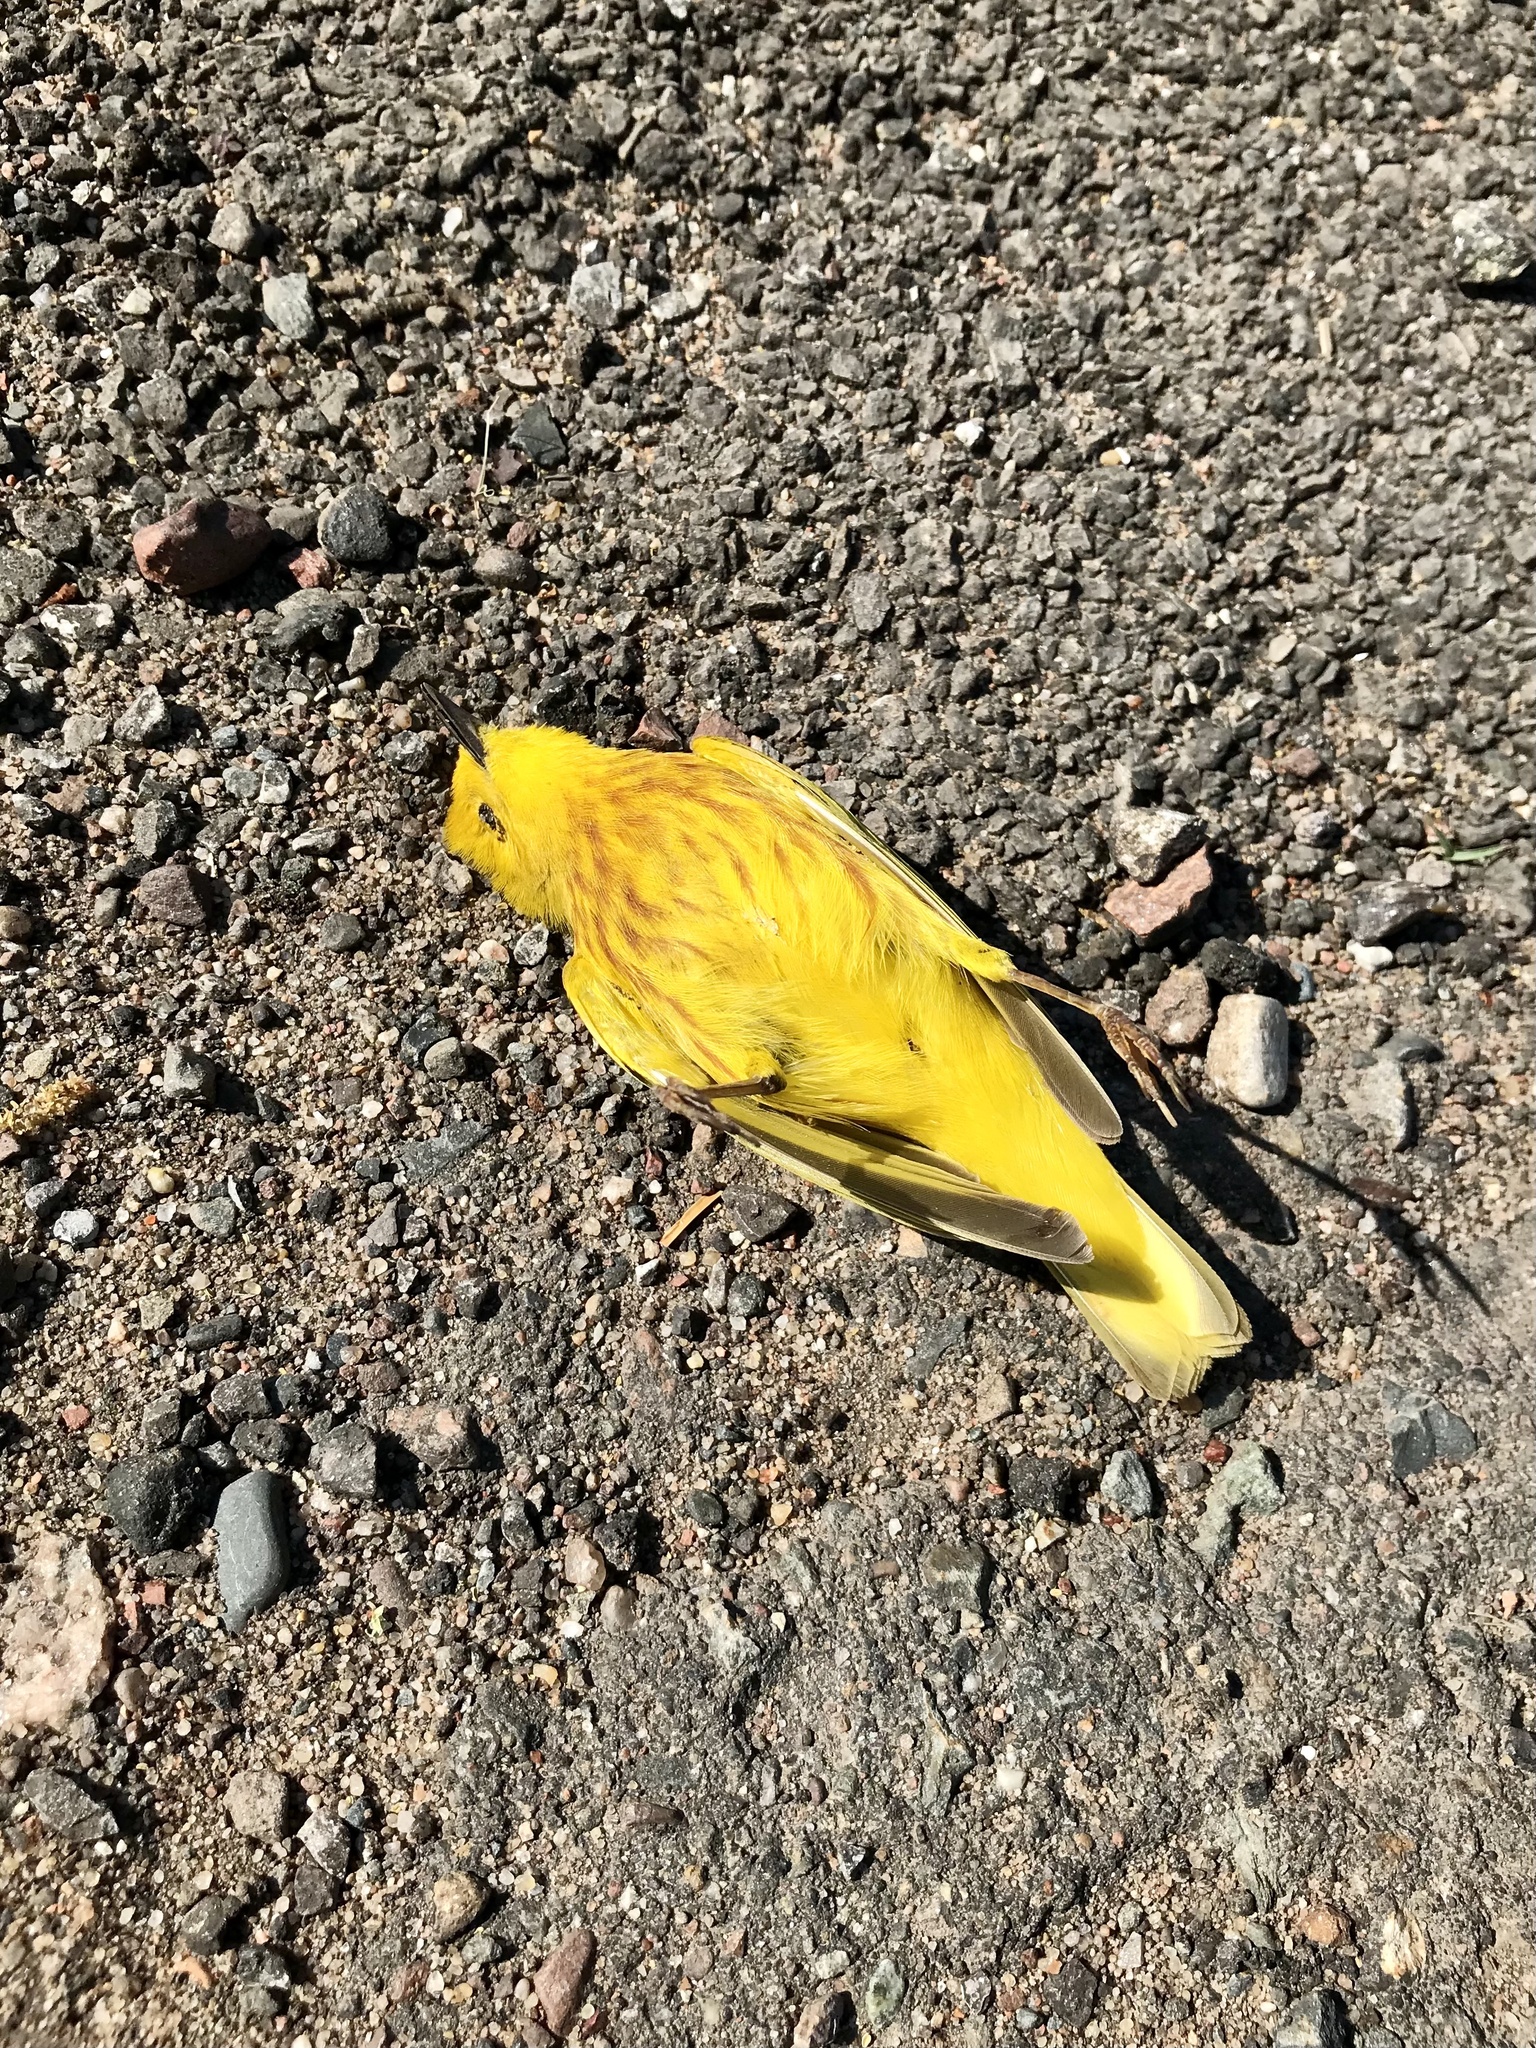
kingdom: Animalia
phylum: Chordata
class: Aves
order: Passeriformes
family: Parulidae
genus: Setophaga
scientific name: Setophaga petechia
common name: Yellow warbler
